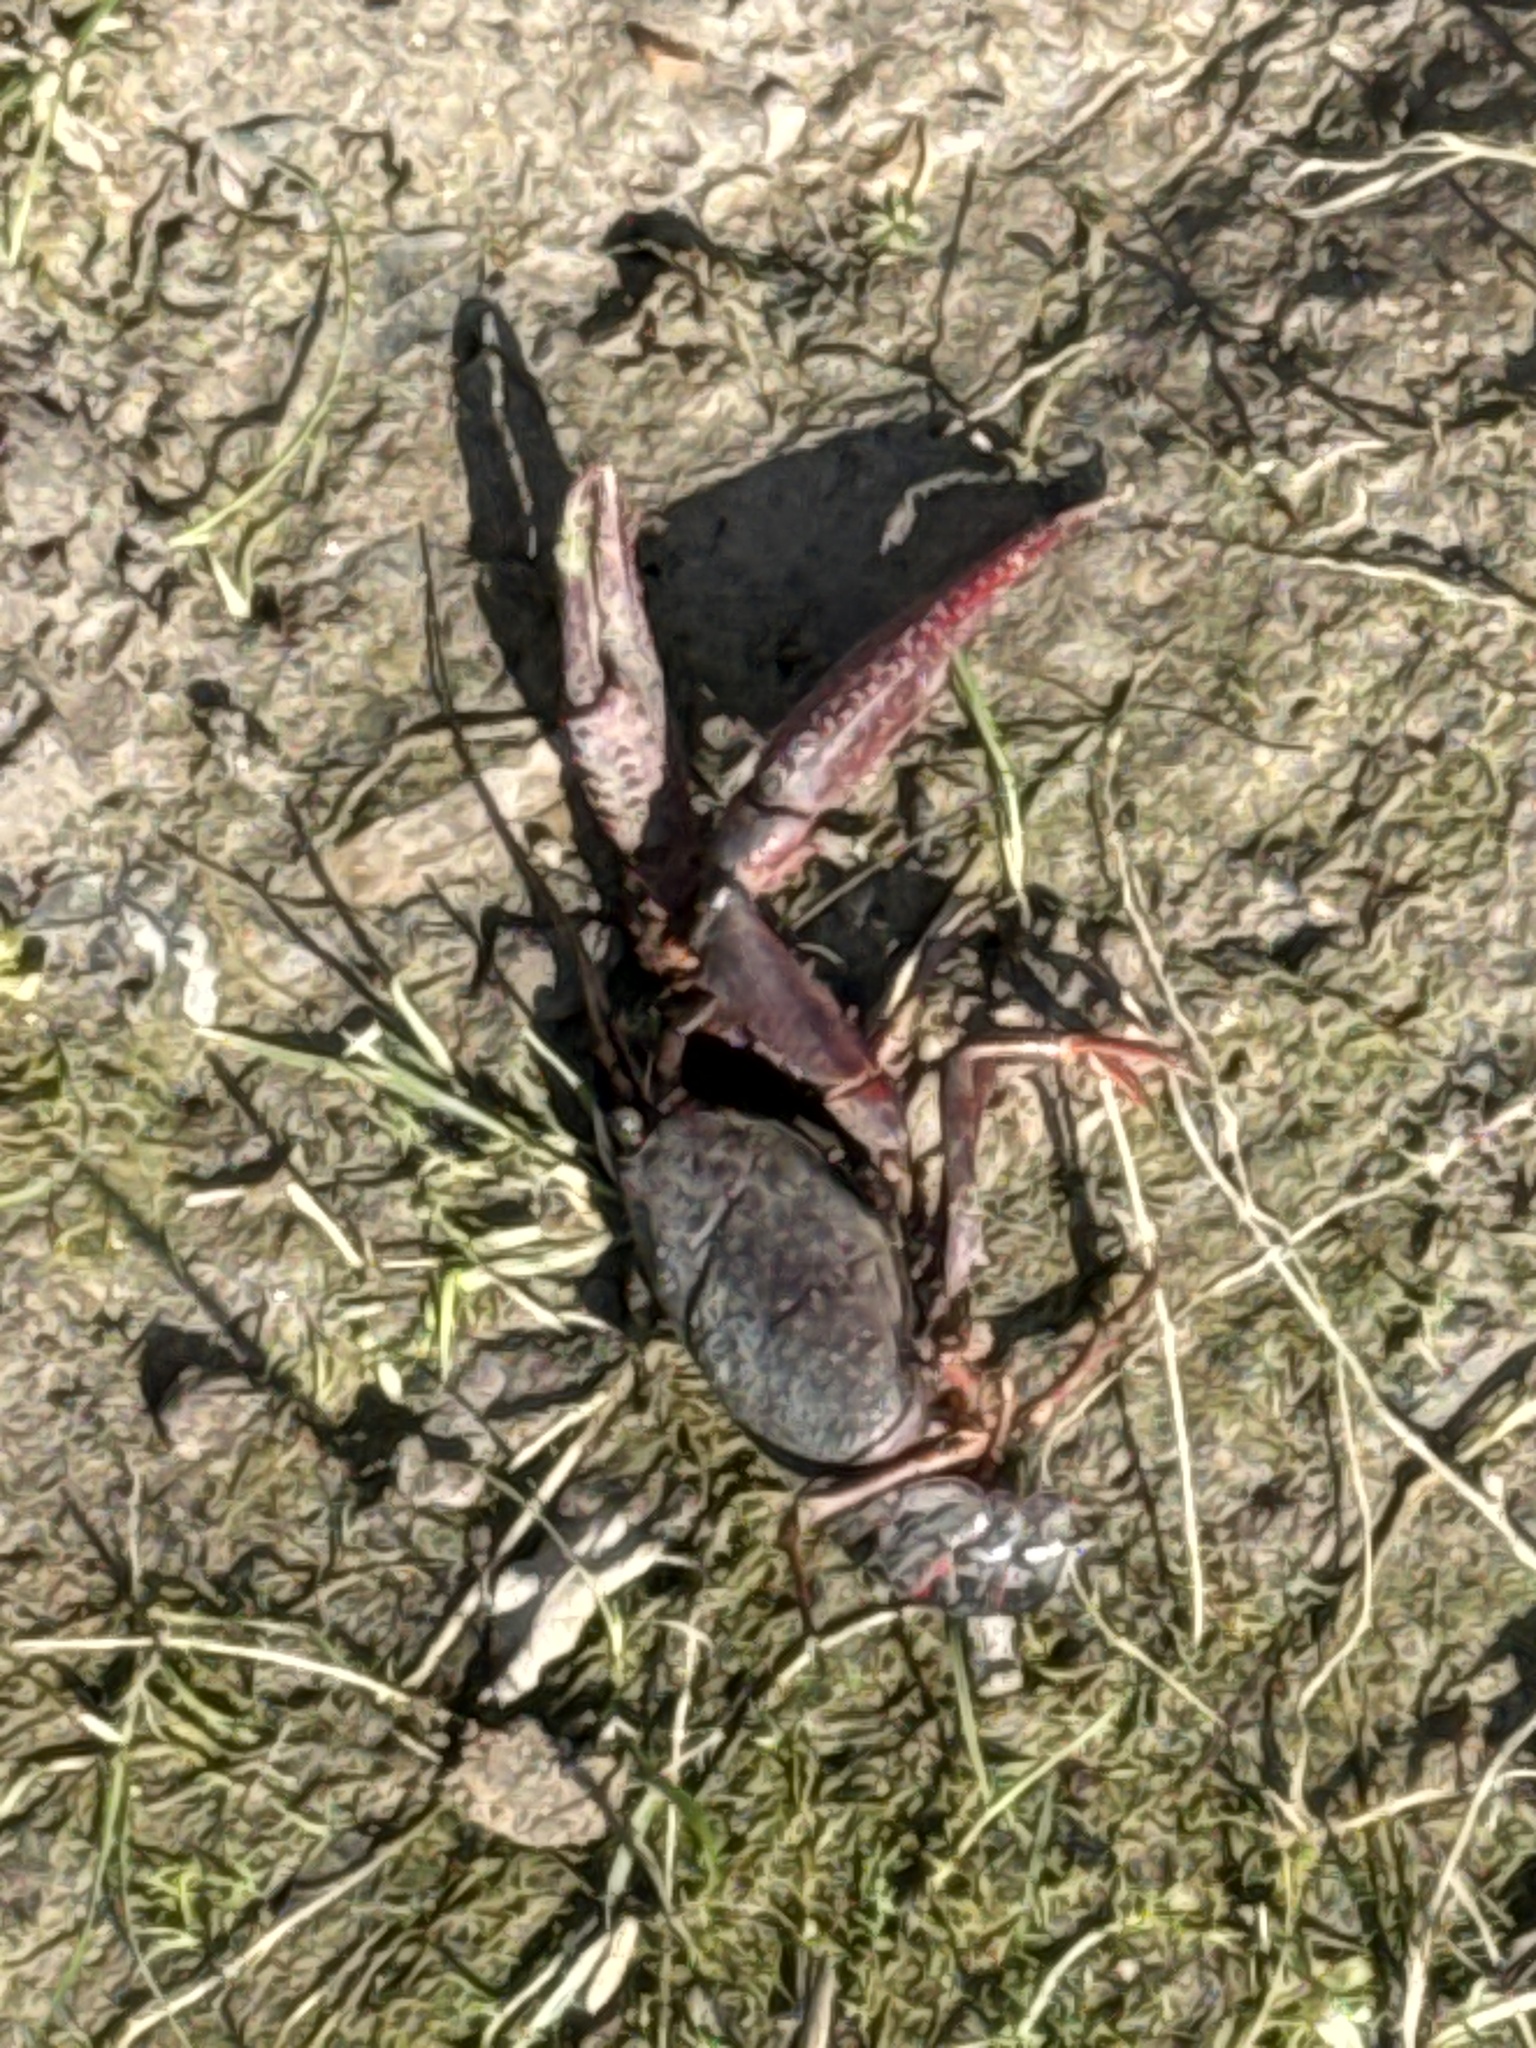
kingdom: Animalia
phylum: Arthropoda
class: Malacostraca
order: Decapoda
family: Cambaridae
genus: Procambarus
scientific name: Procambarus clarkii
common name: Red swamp crayfish
